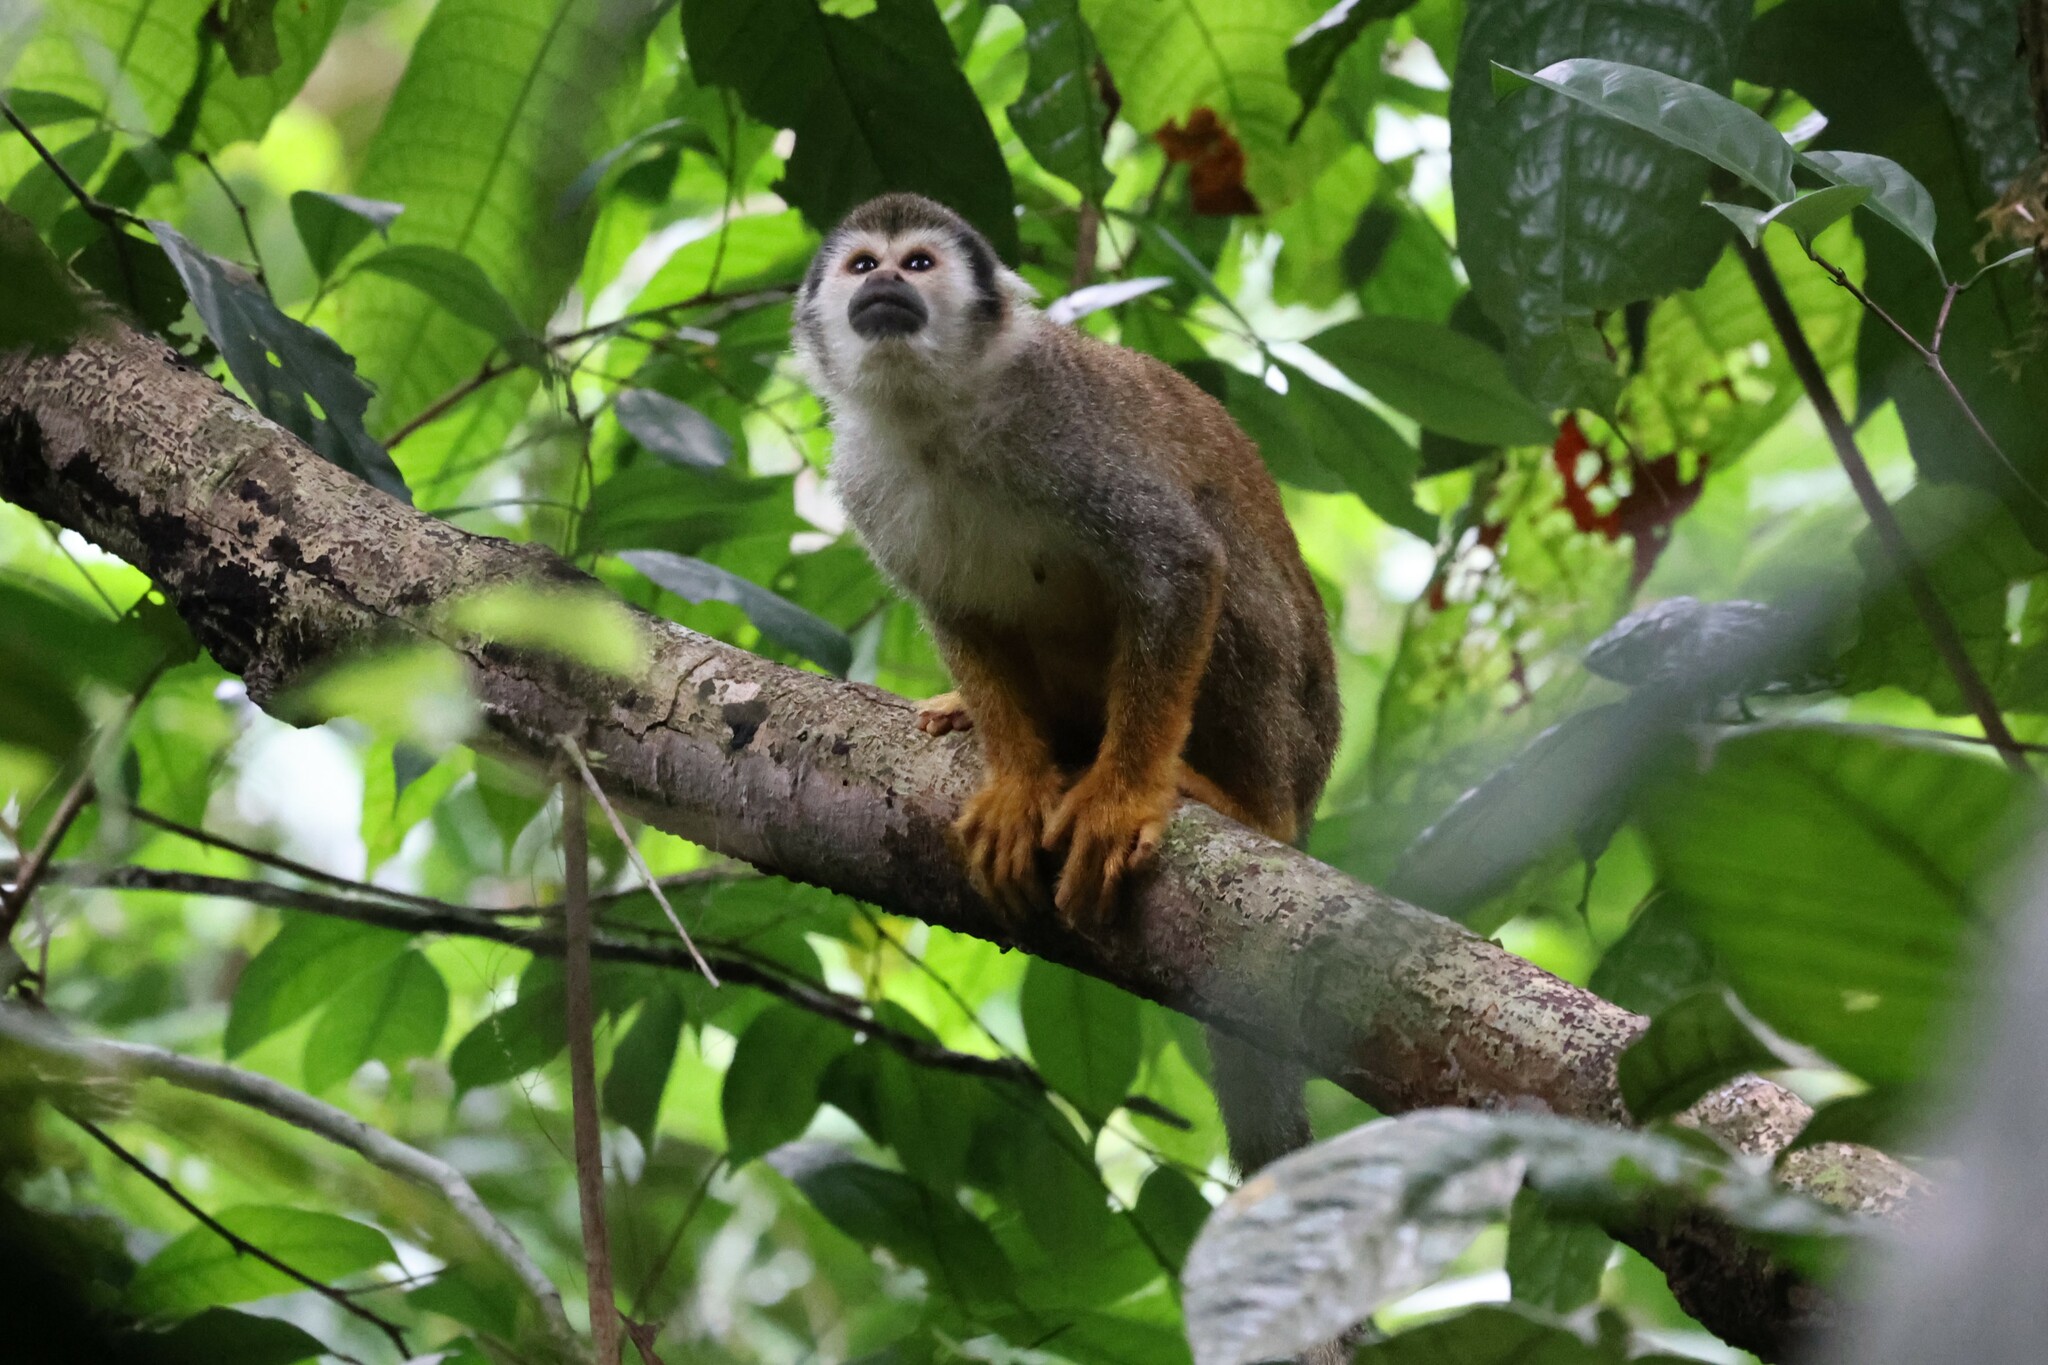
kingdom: Animalia
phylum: Chordata
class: Mammalia
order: Primates
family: Cebidae
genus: Saimiri
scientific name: Saimiri cassiquiarensis
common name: Humboldt’s squirrel monkey
